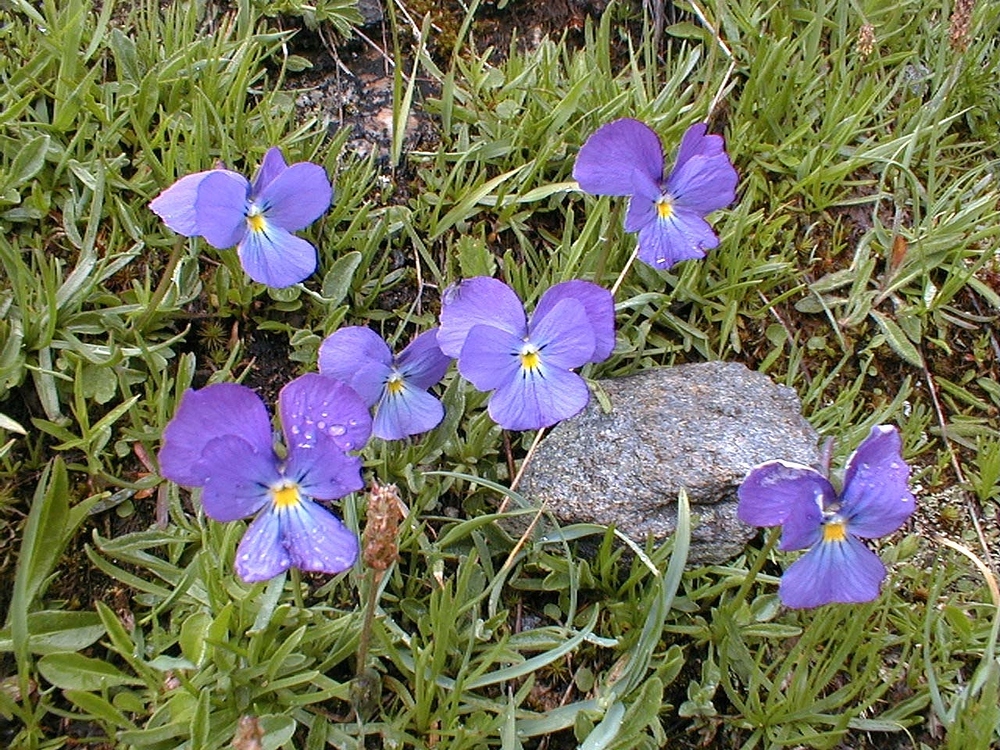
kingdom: Plantae
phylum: Tracheophyta
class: Magnoliopsida
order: Malpighiales
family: Violaceae
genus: Viola
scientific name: Viola calcarata
